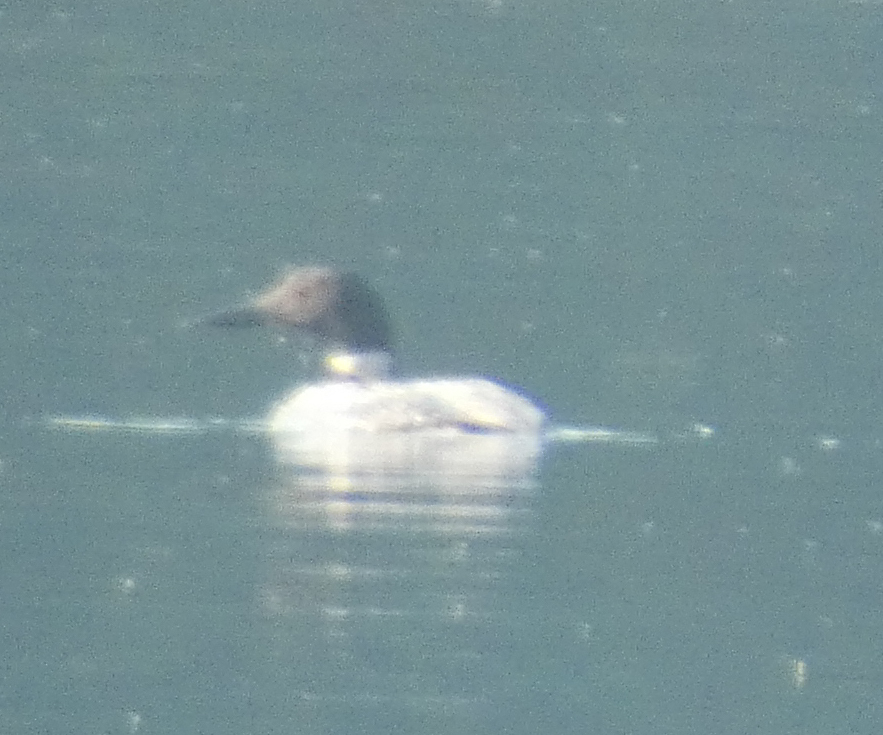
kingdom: Animalia
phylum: Chordata
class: Aves
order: Gaviiformes
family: Gaviidae
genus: Gavia
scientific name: Gavia immer
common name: Common loon
